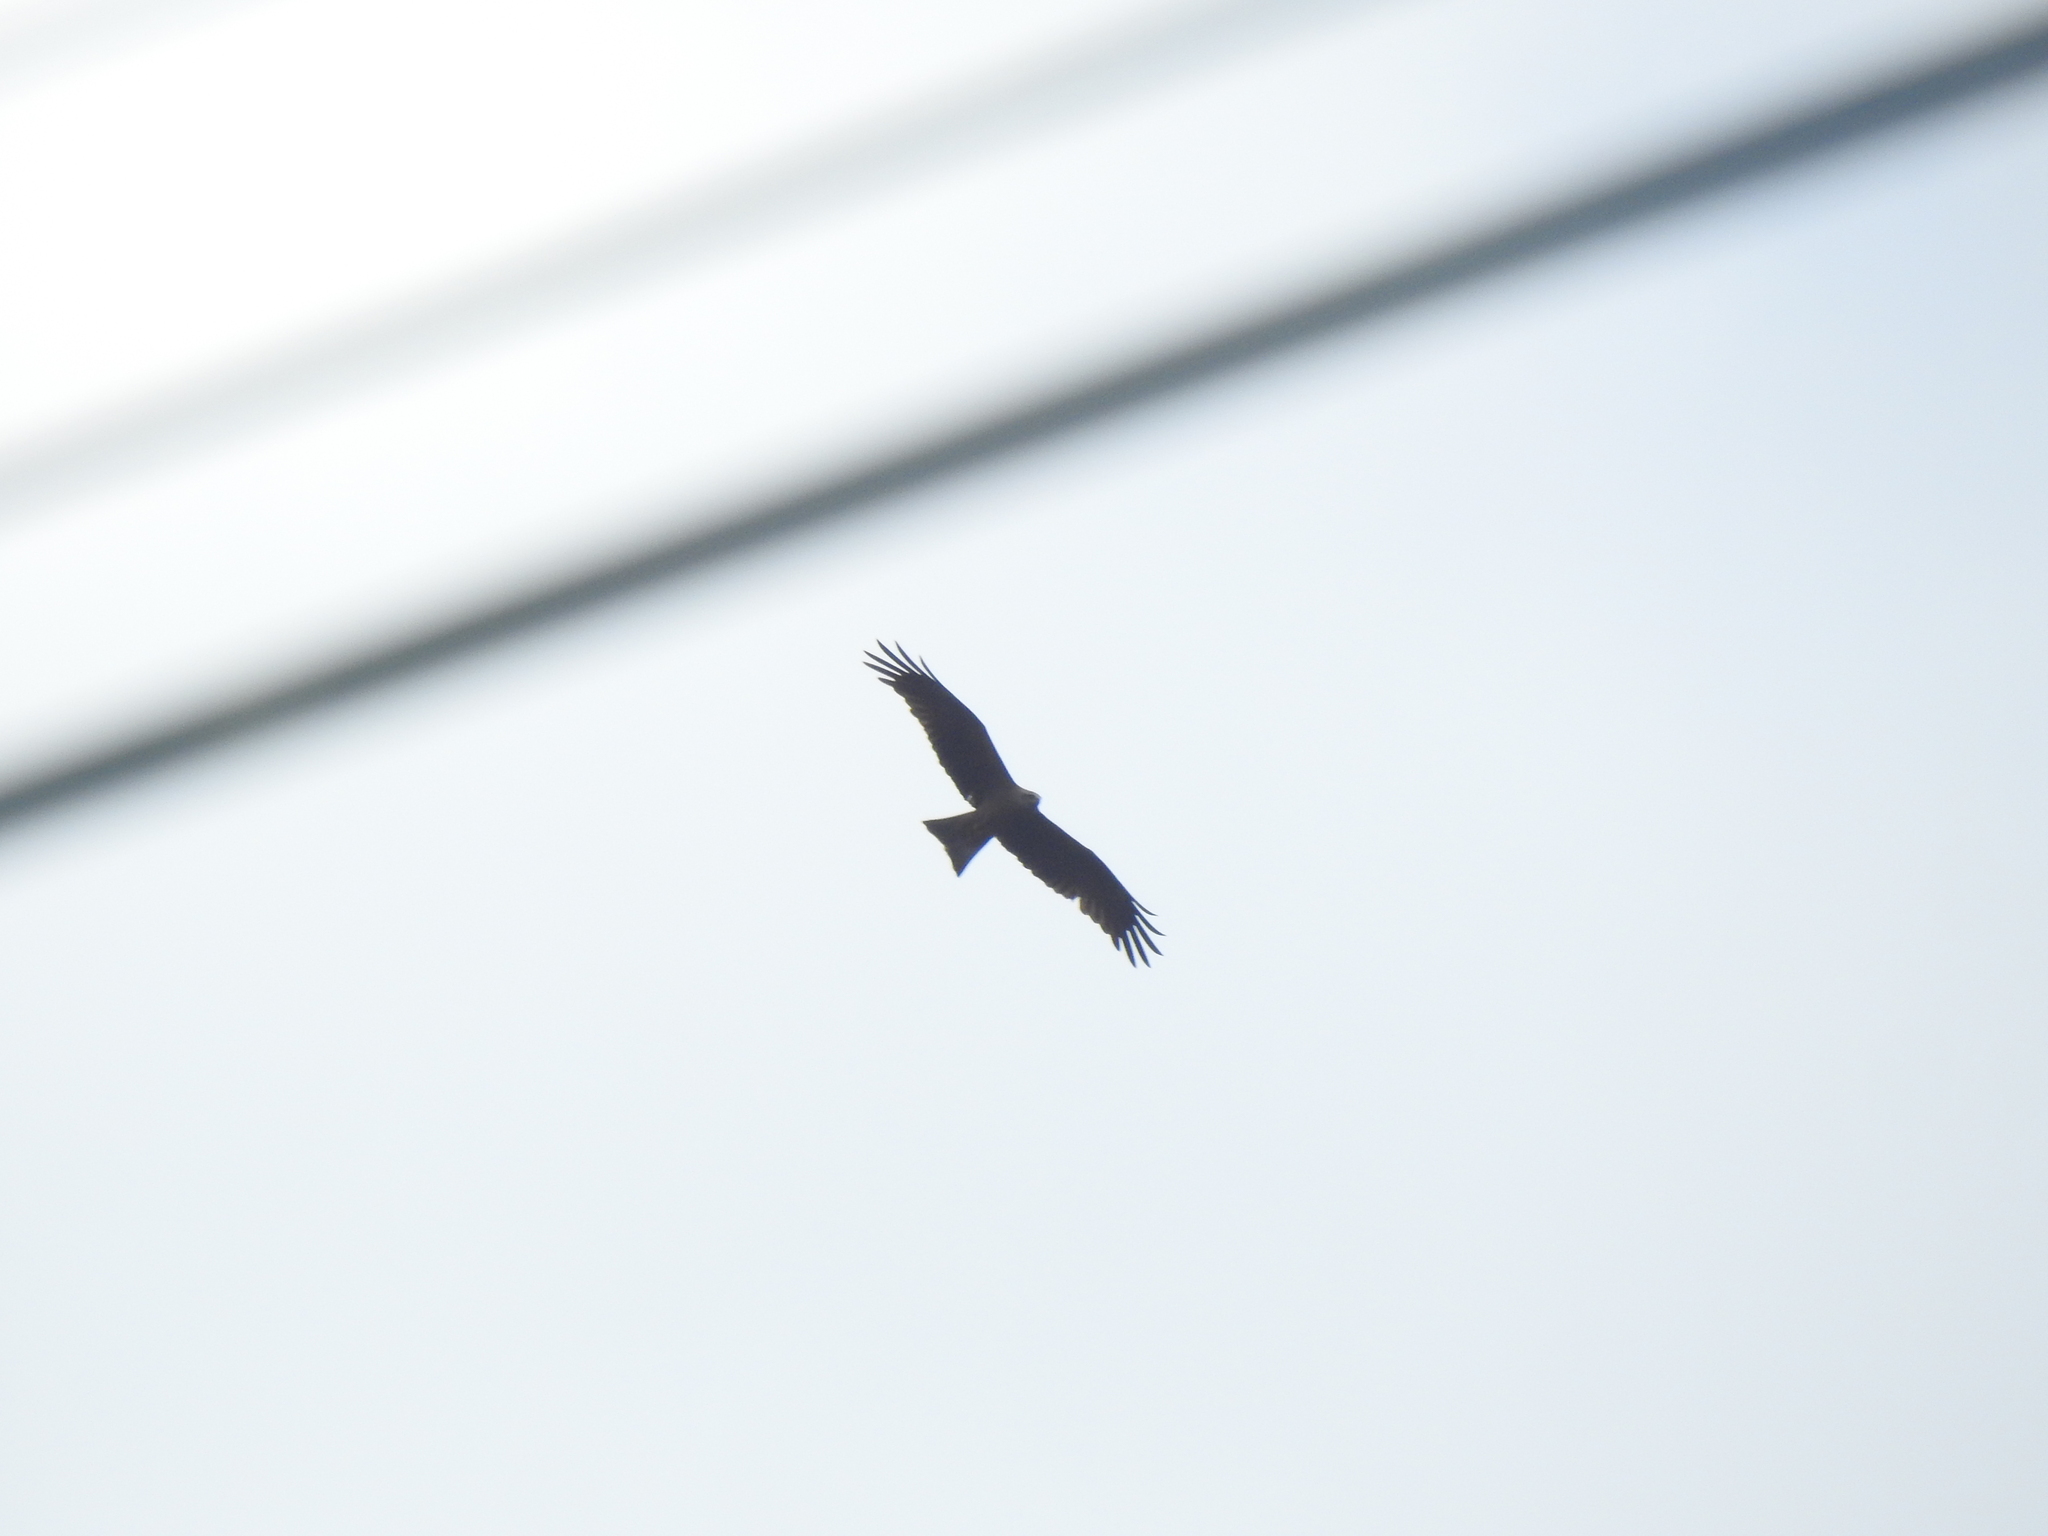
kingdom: Animalia
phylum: Chordata
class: Aves
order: Accipitriformes
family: Accipitridae
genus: Milvus
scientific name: Milvus migrans
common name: Black kite
